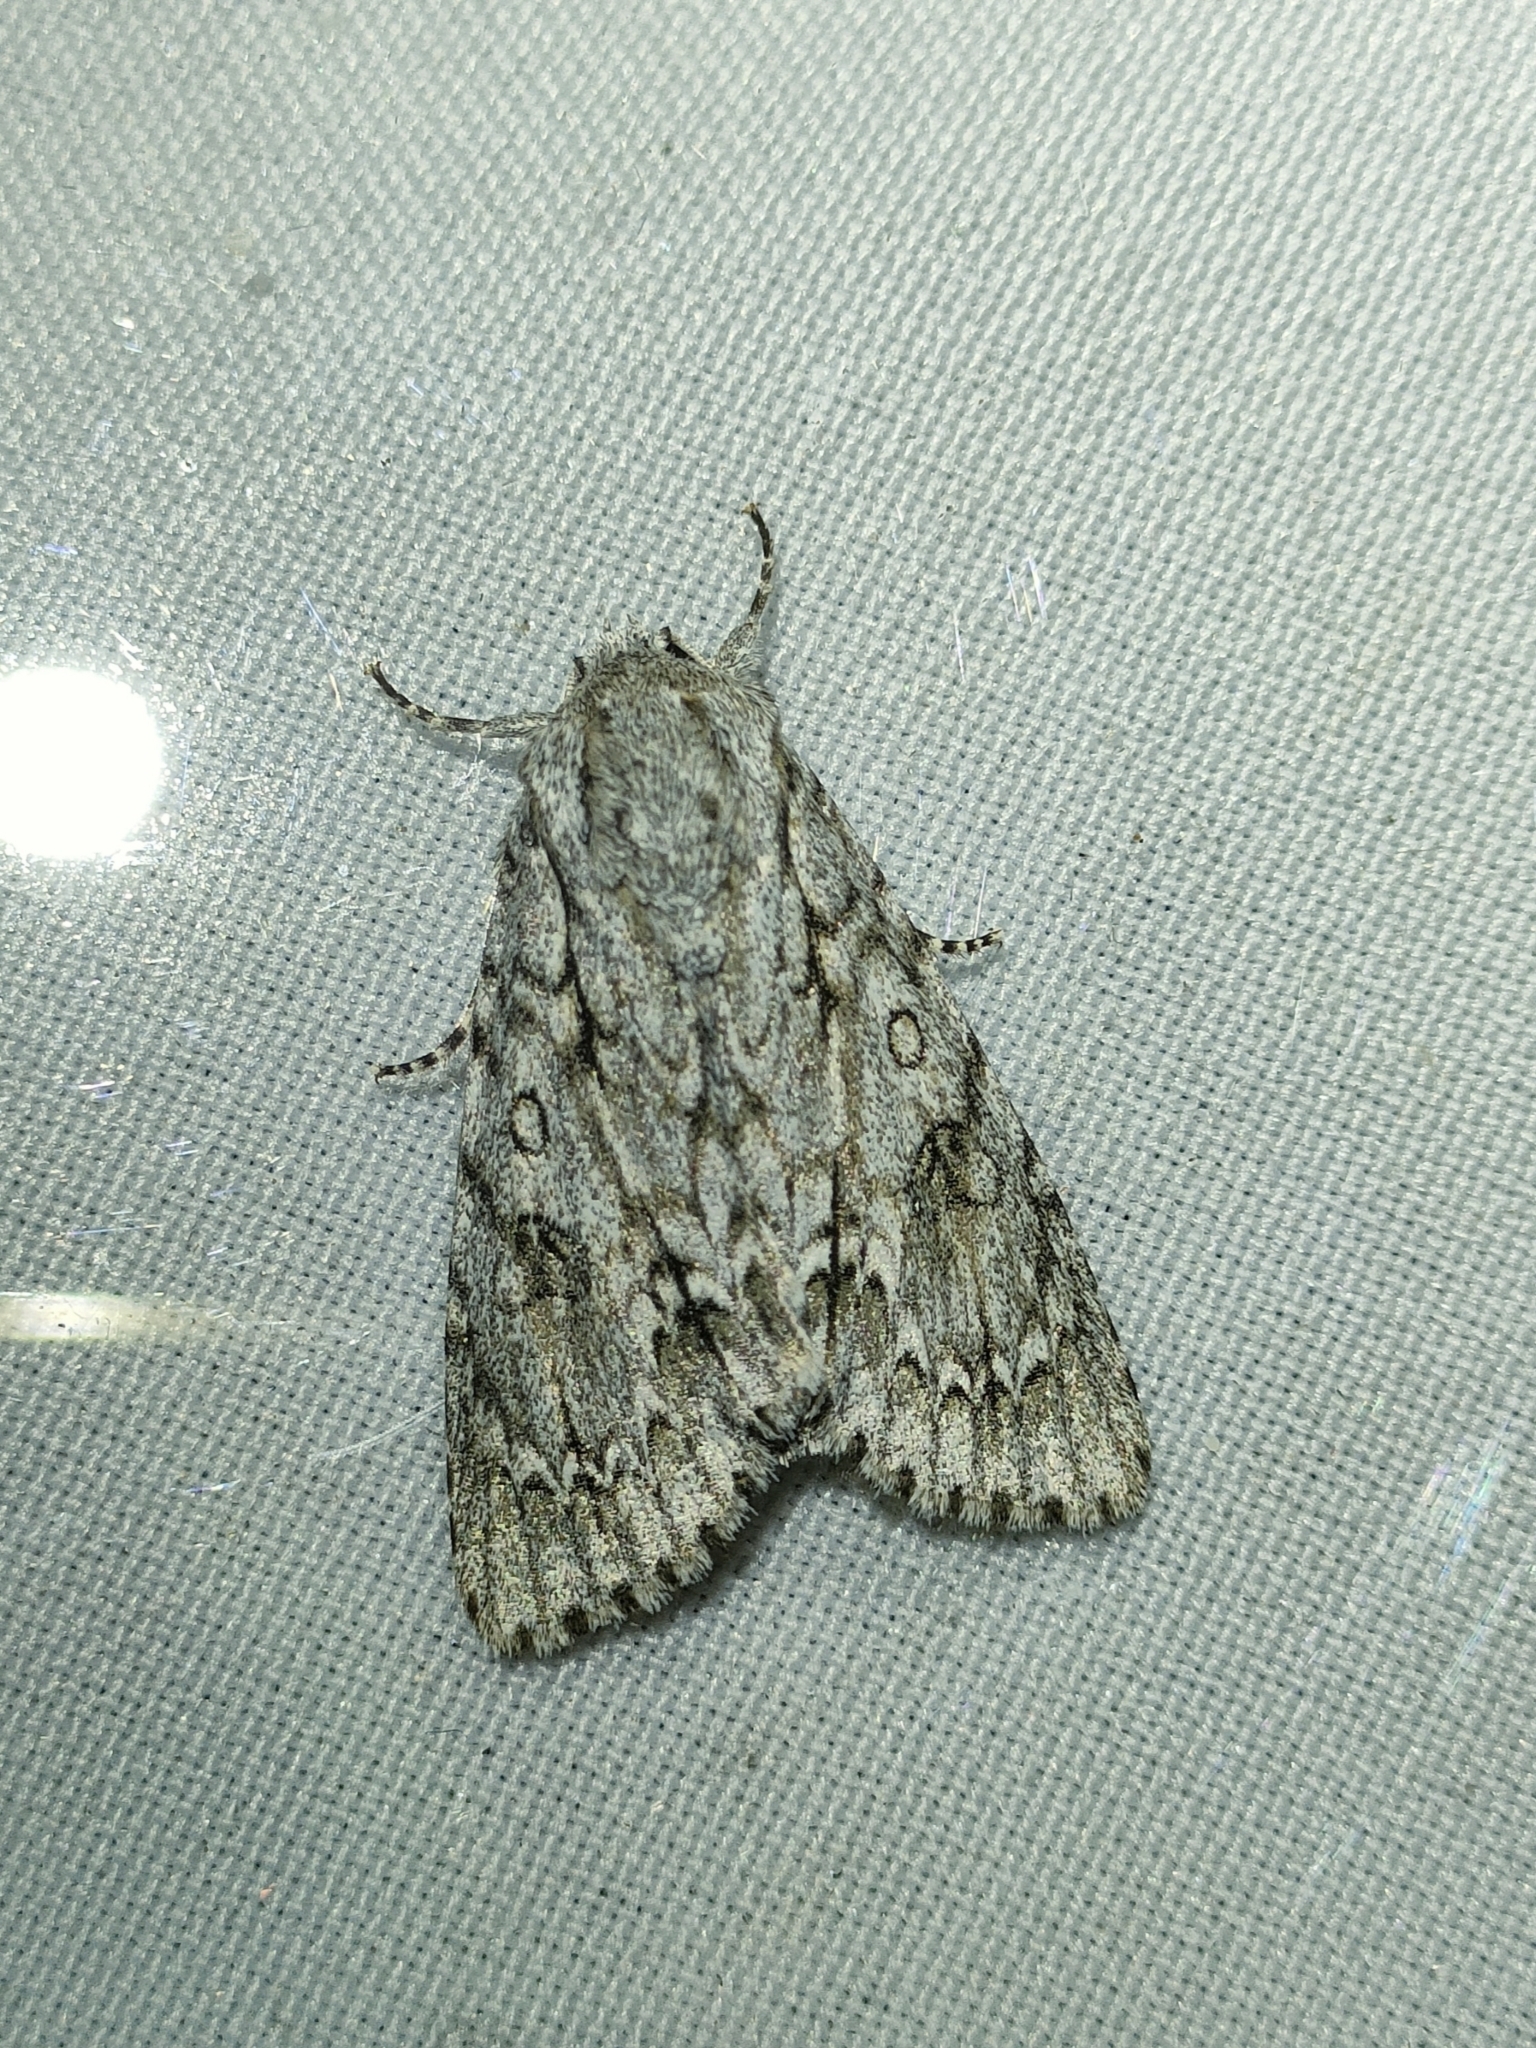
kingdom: Animalia
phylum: Arthropoda
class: Insecta
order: Lepidoptera
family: Noctuidae
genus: Acronicta
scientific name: Acronicta aceris
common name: Sycamore
